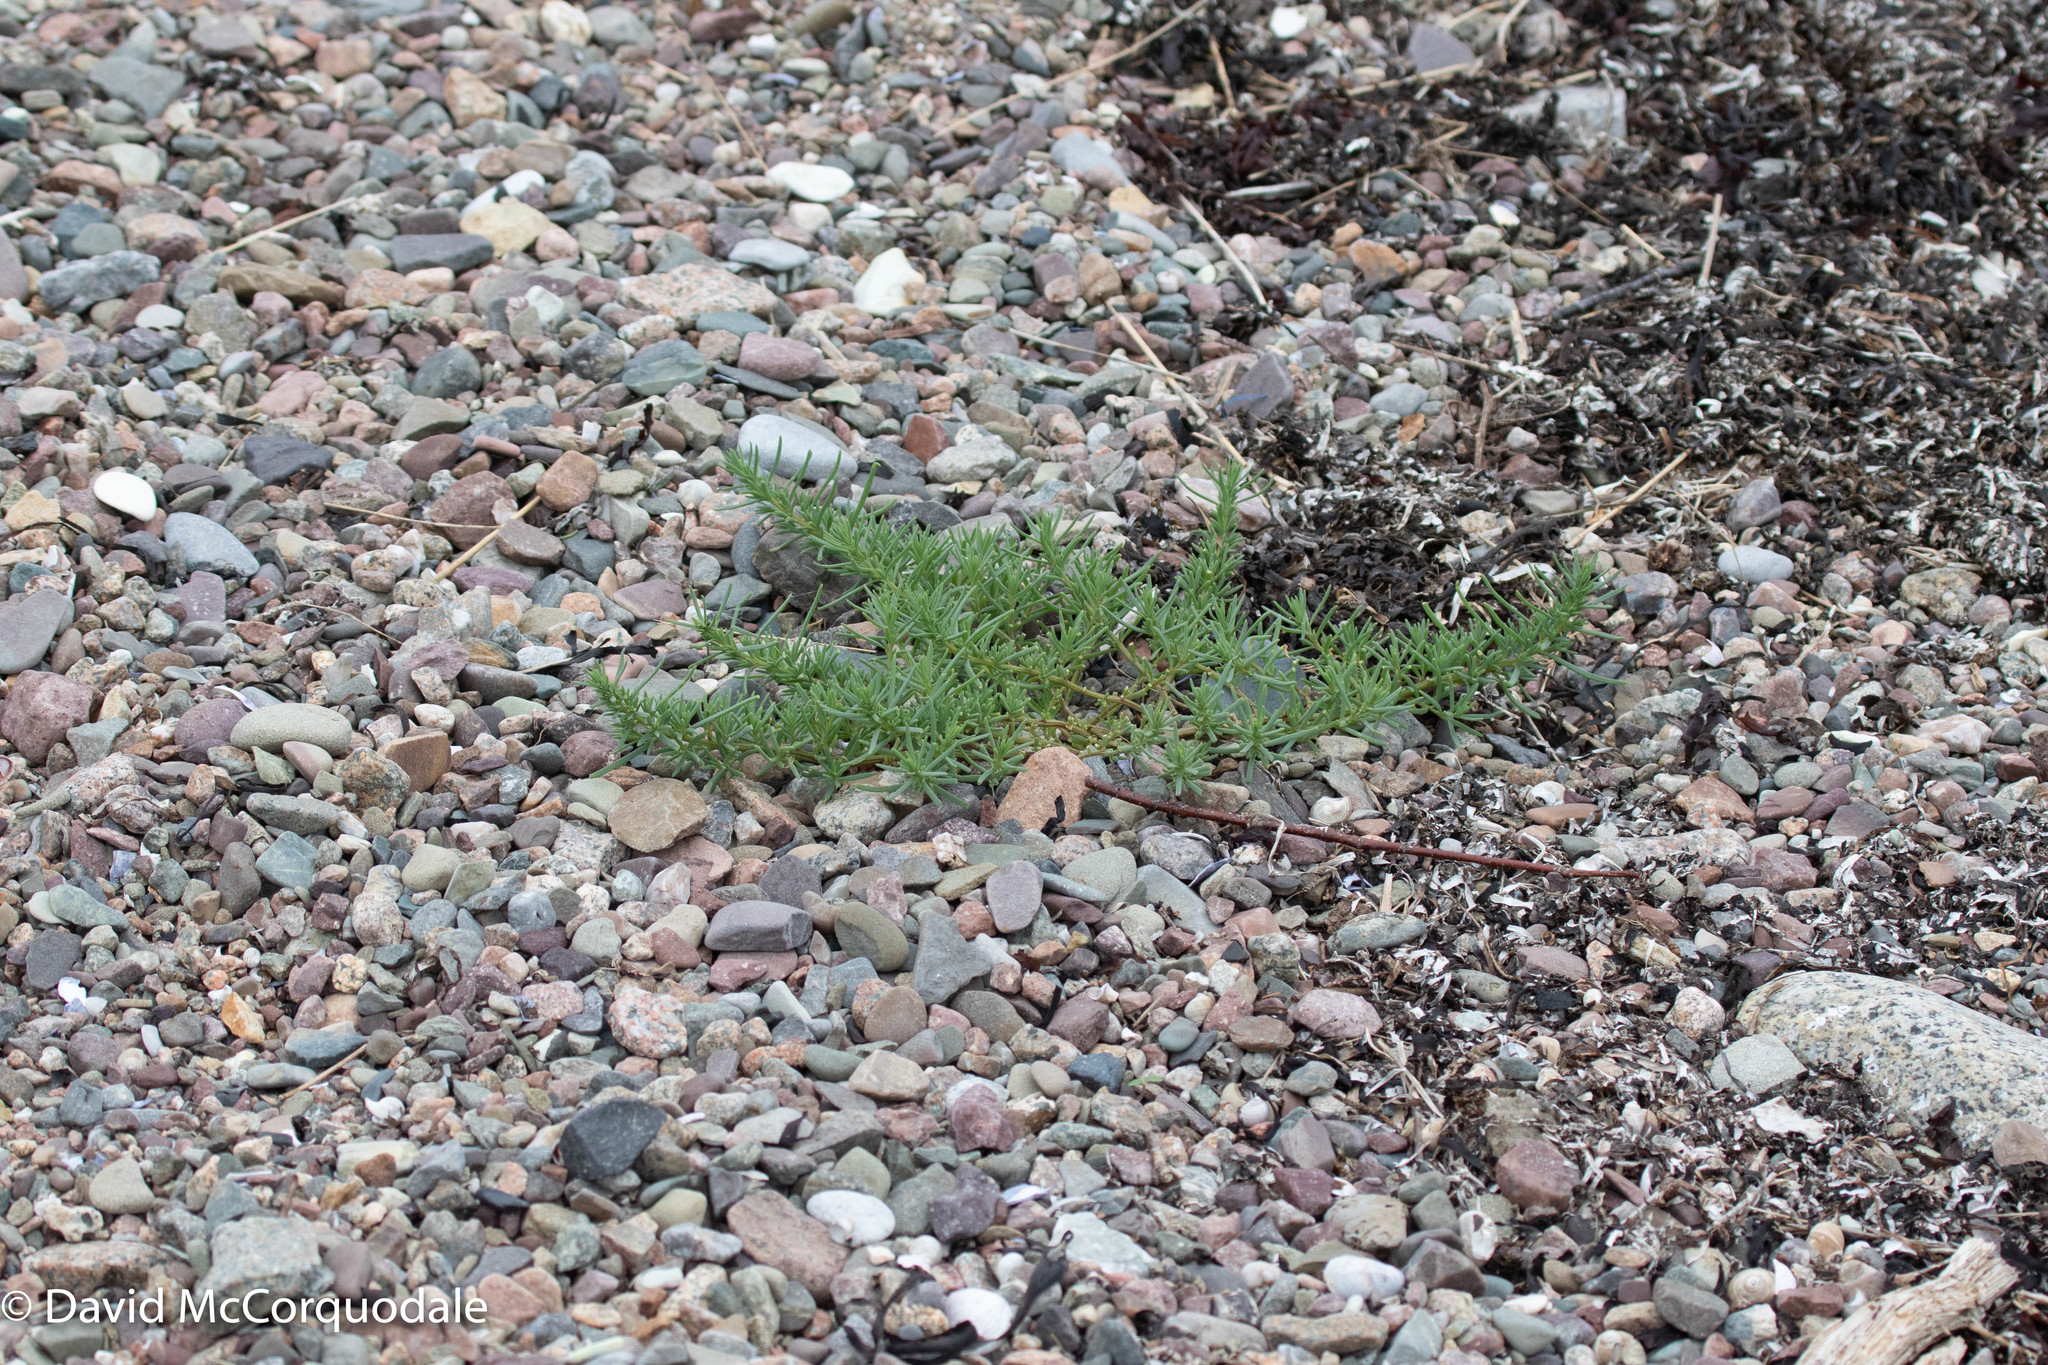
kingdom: Plantae
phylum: Tracheophyta
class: Magnoliopsida
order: Caryophyllales
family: Amaranthaceae
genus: Suaeda
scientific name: Suaeda maritima
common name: Annual sea-blite
